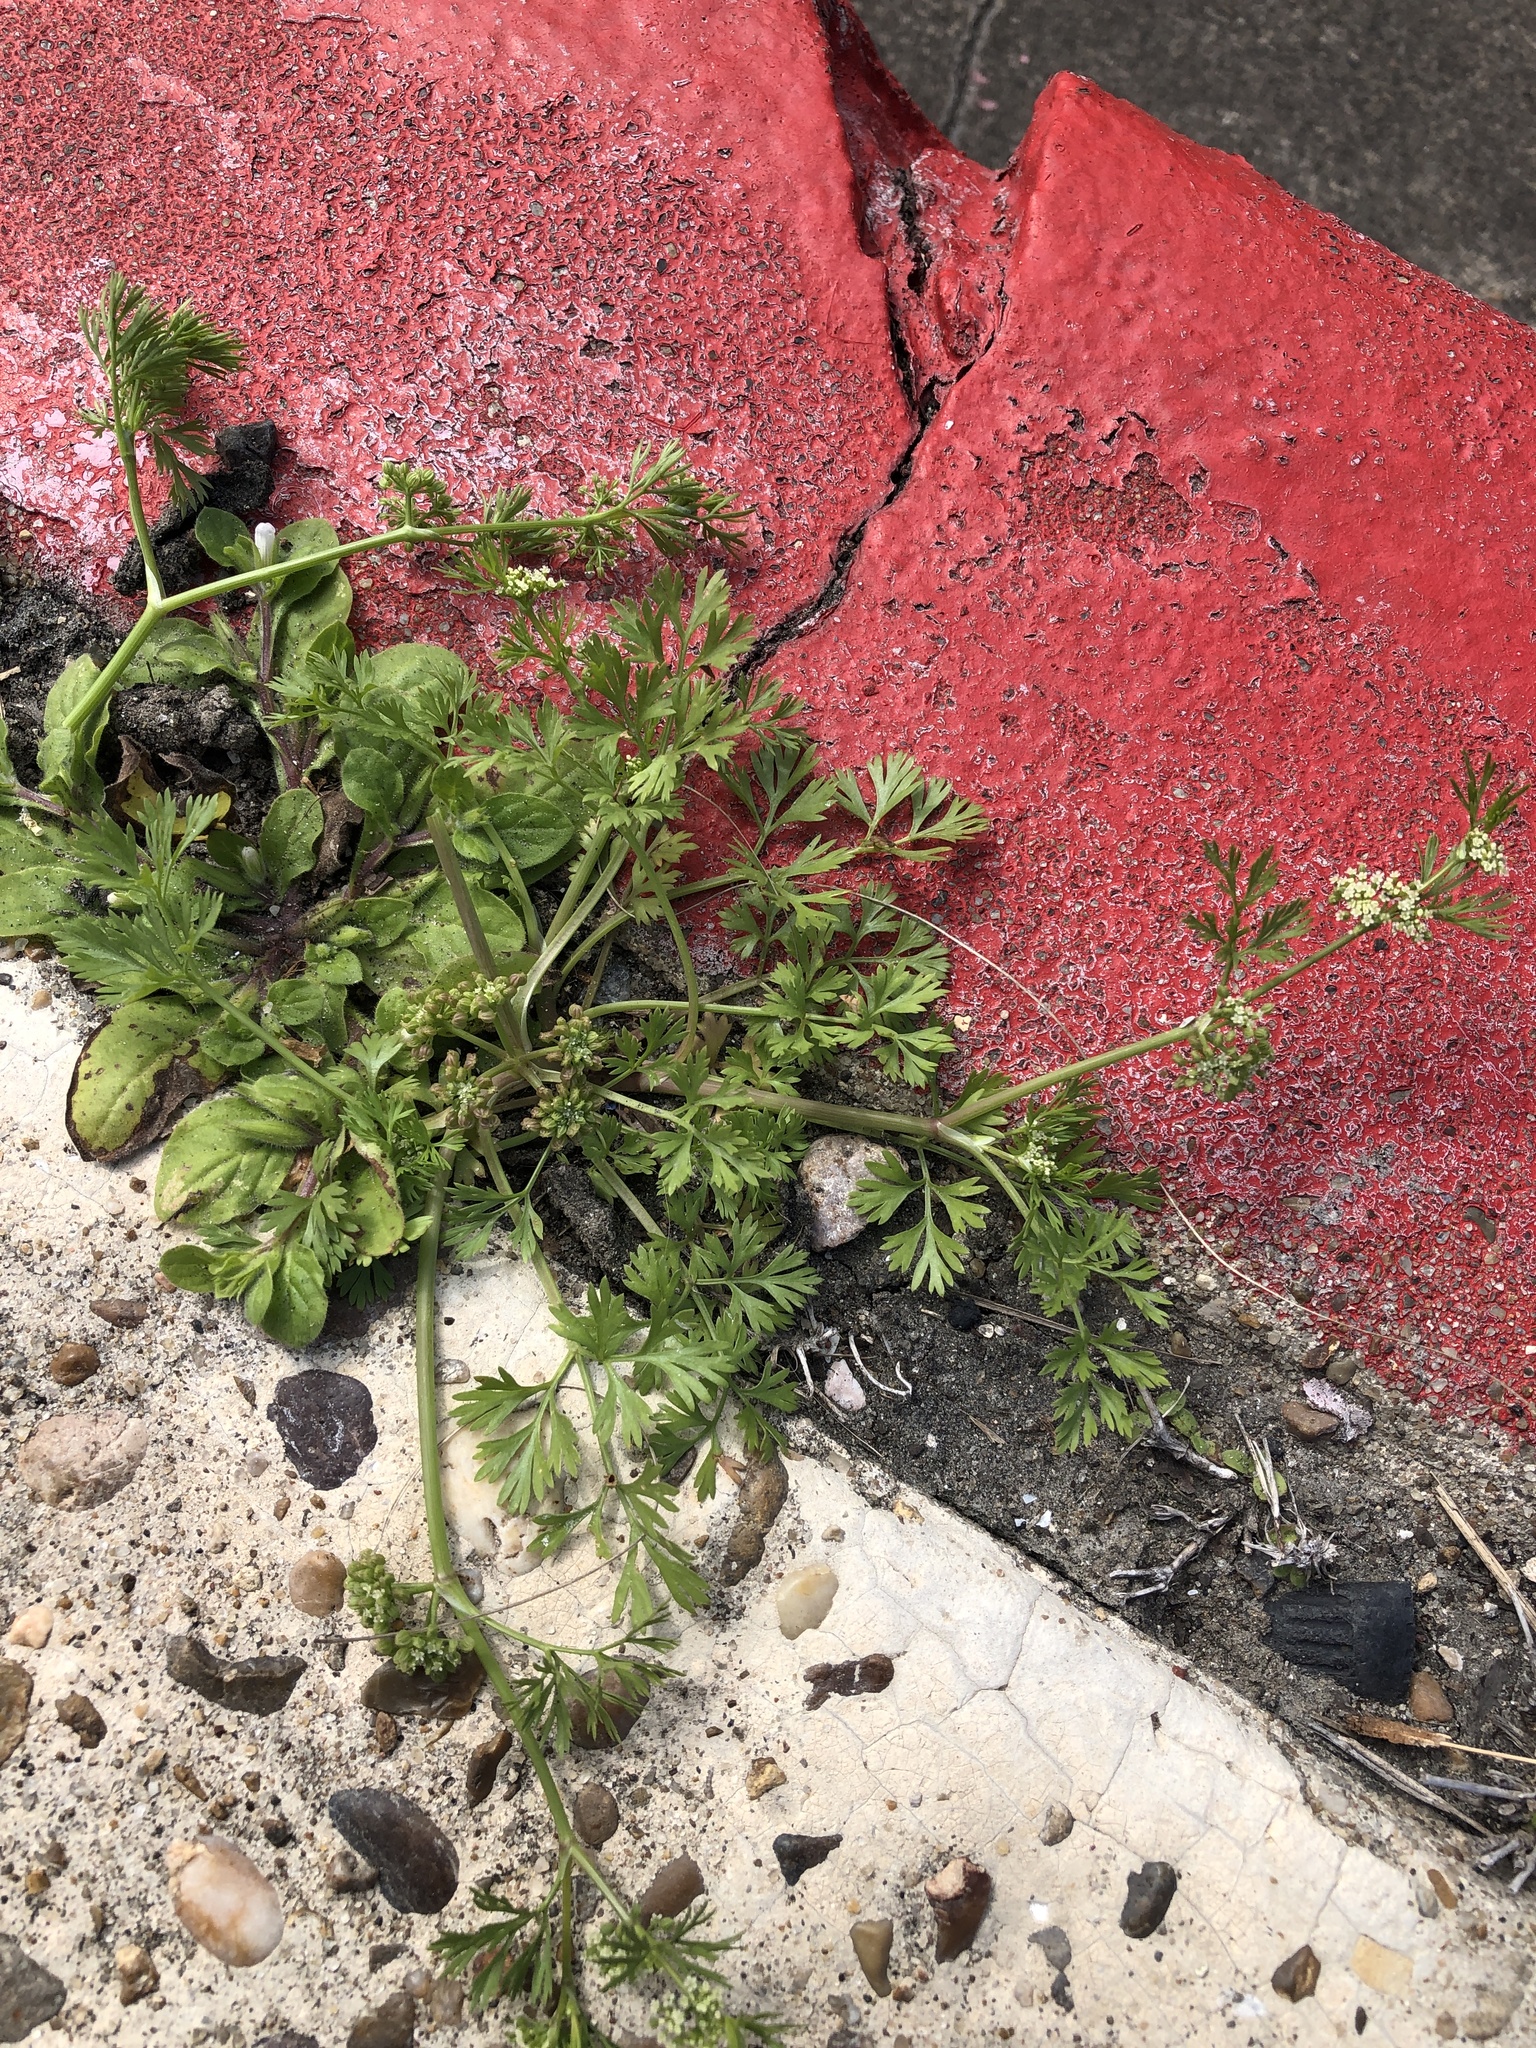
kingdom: Plantae
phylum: Tracheophyta
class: Magnoliopsida
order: Apiales
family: Apiaceae
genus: Cyclospermum
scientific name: Cyclospermum leptophyllum
